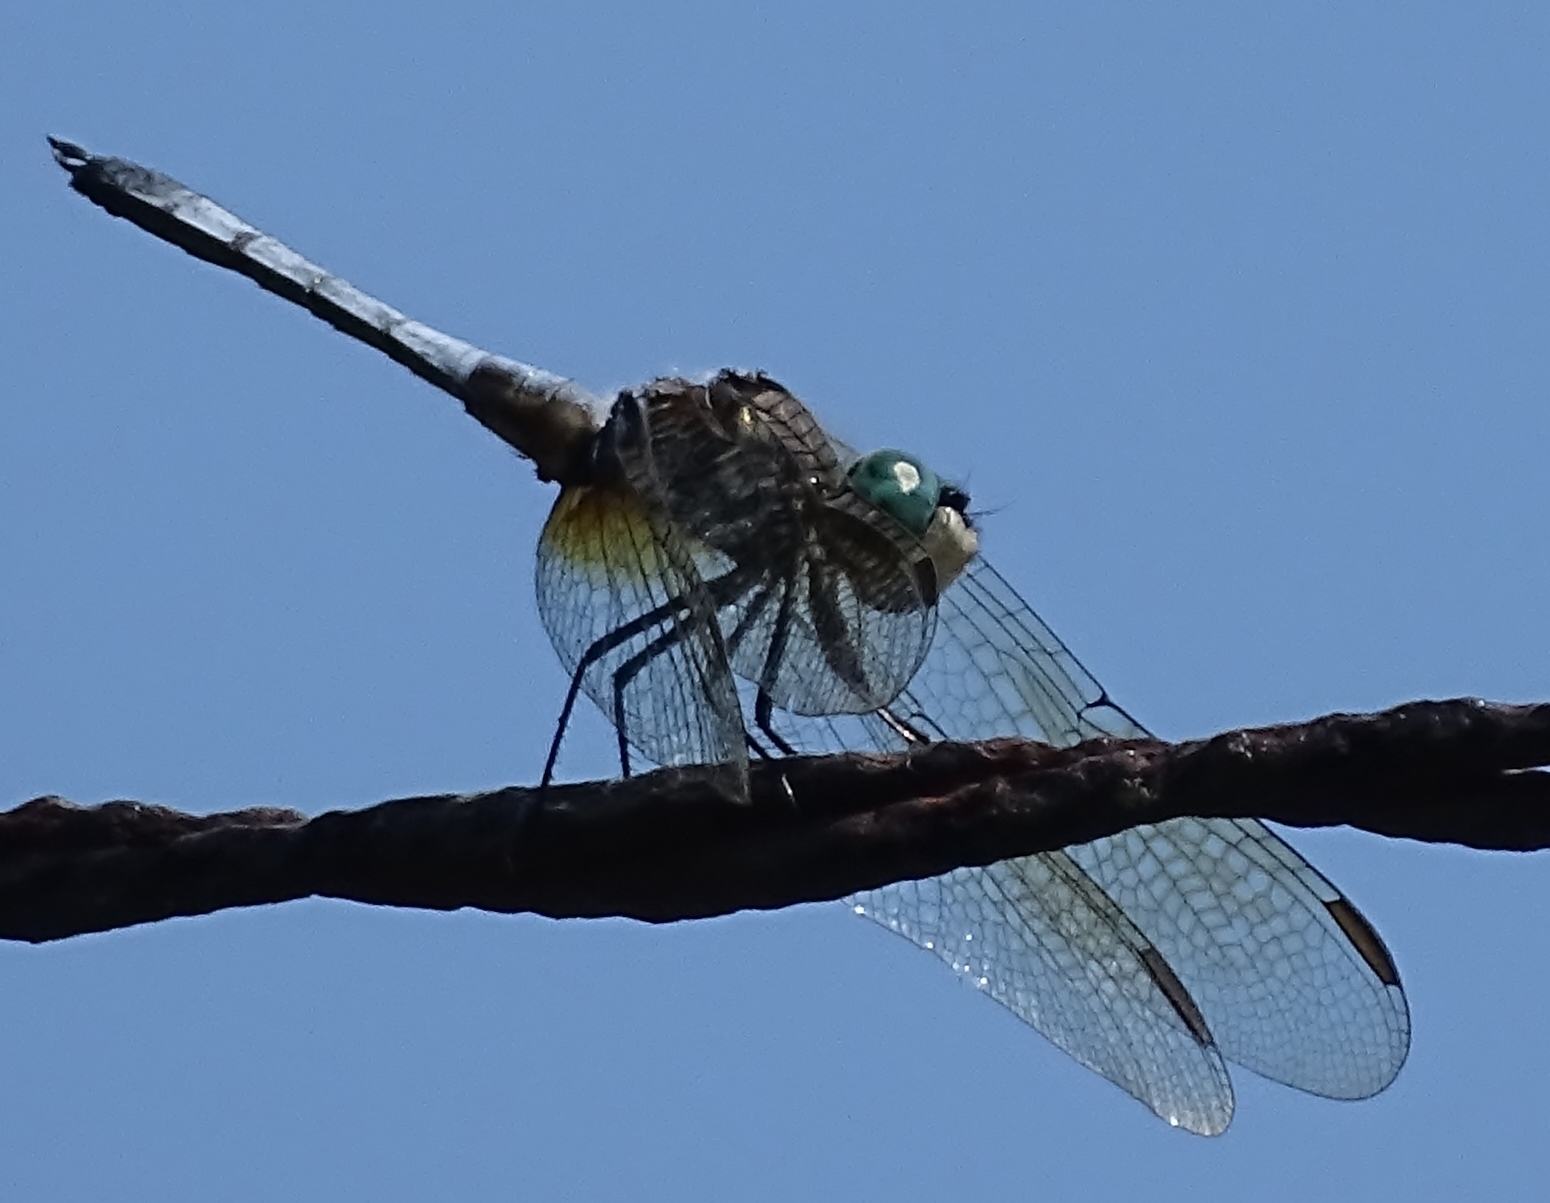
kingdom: Animalia
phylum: Arthropoda
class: Insecta
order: Odonata
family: Libellulidae
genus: Pachydiplax
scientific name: Pachydiplax longipennis
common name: Blue dasher
